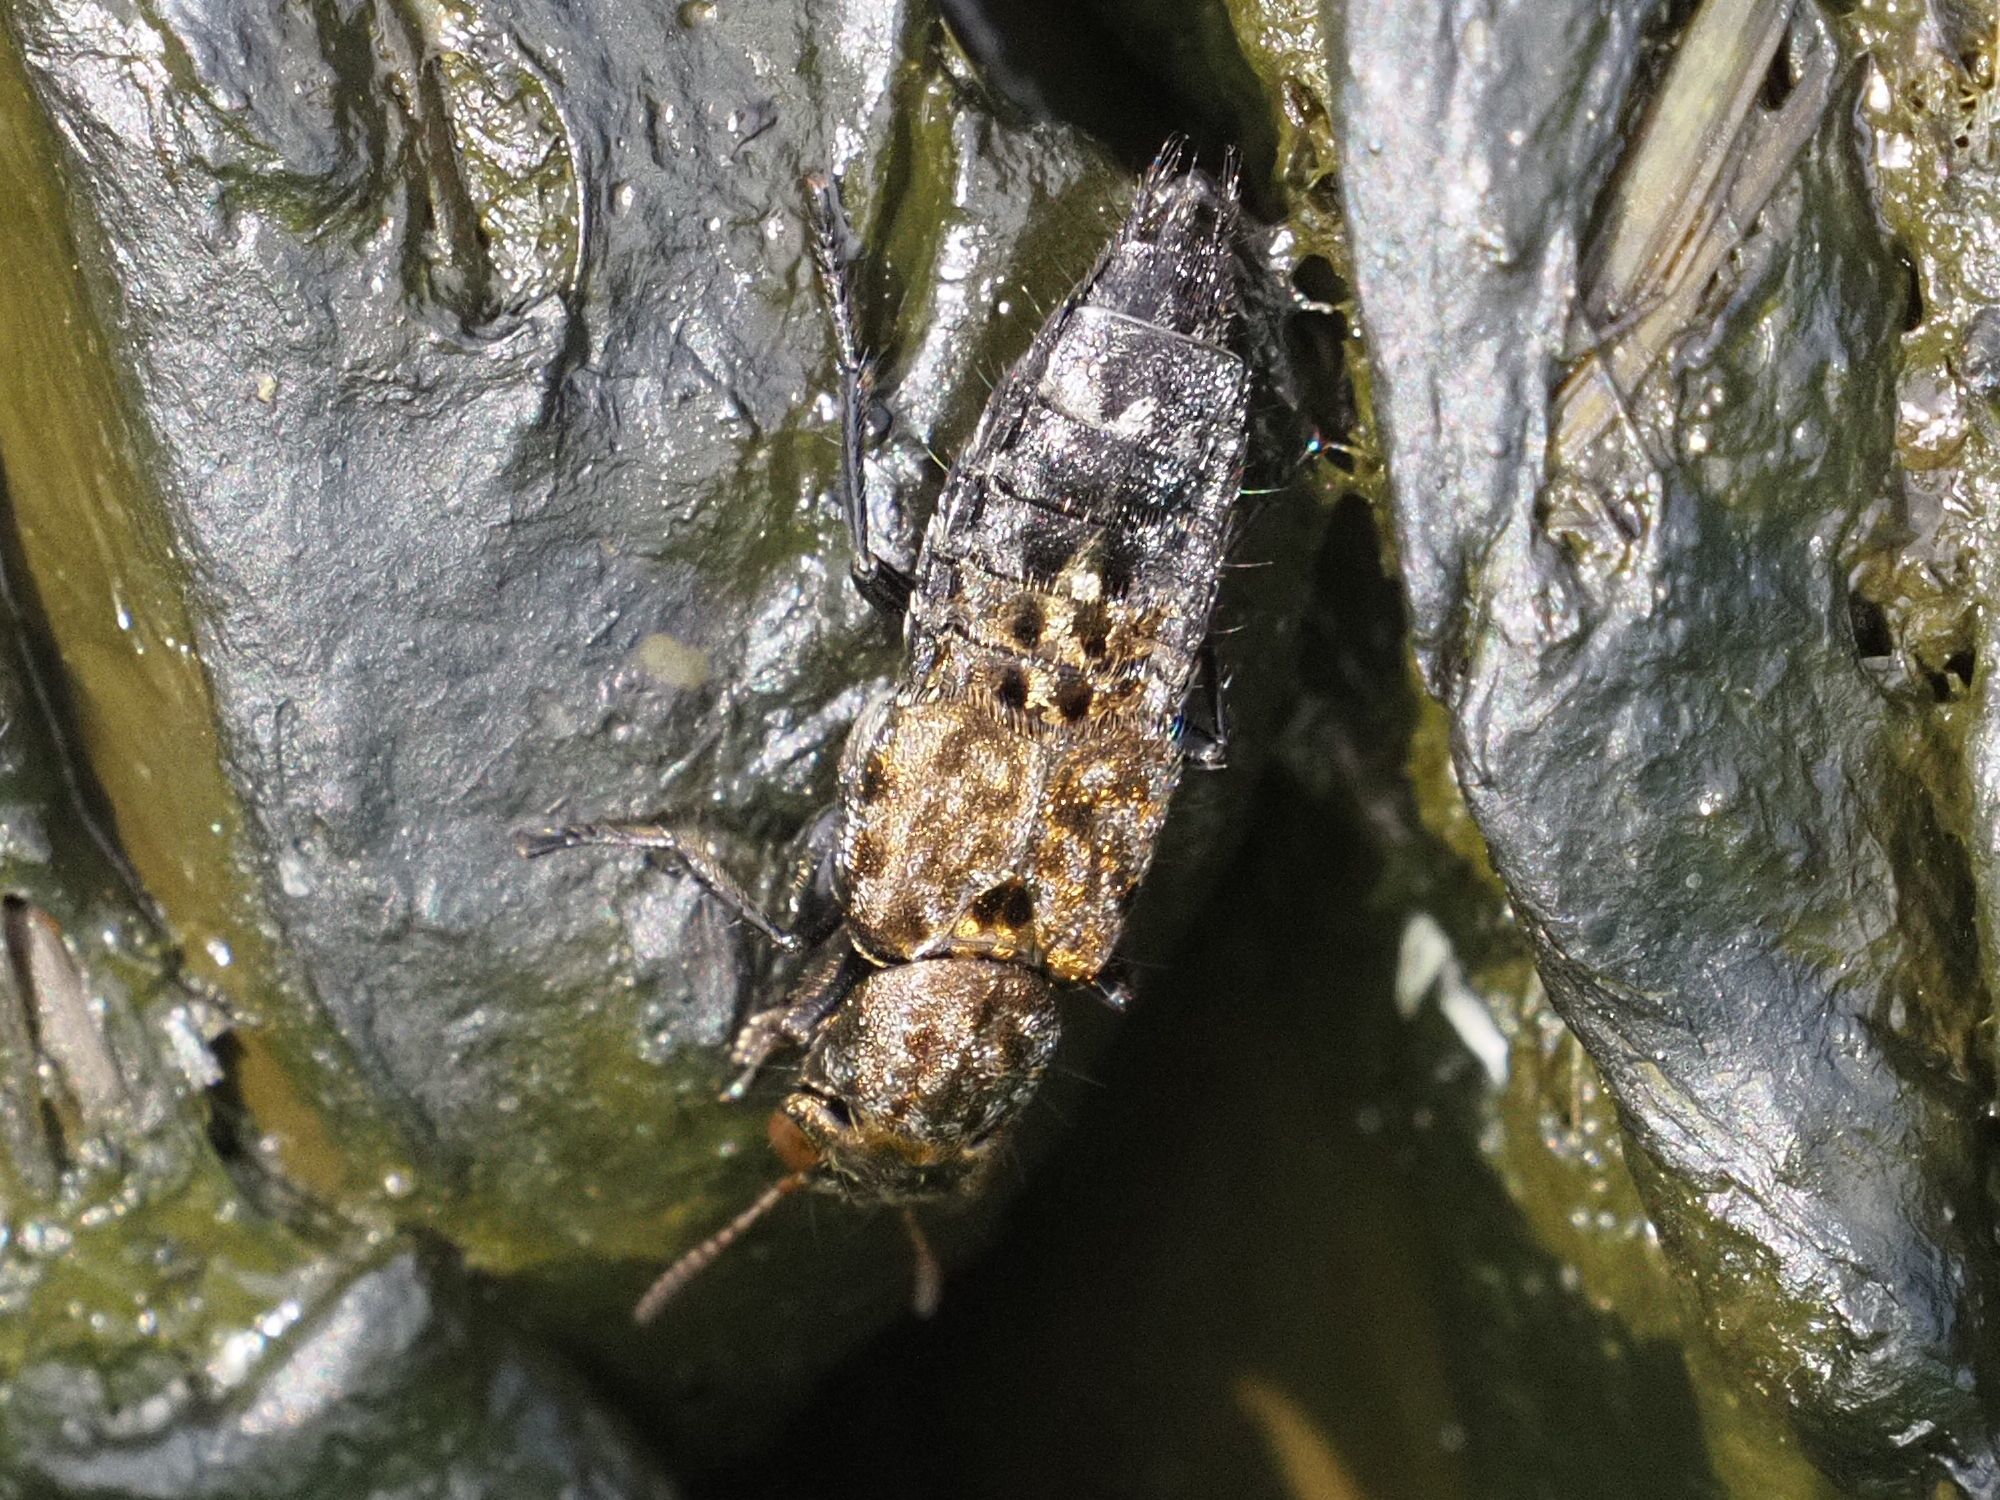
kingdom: Animalia
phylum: Arthropoda
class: Insecta
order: Coleoptera
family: Staphylinidae
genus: Ontholestes
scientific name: Ontholestes murinus
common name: Staph beetle
